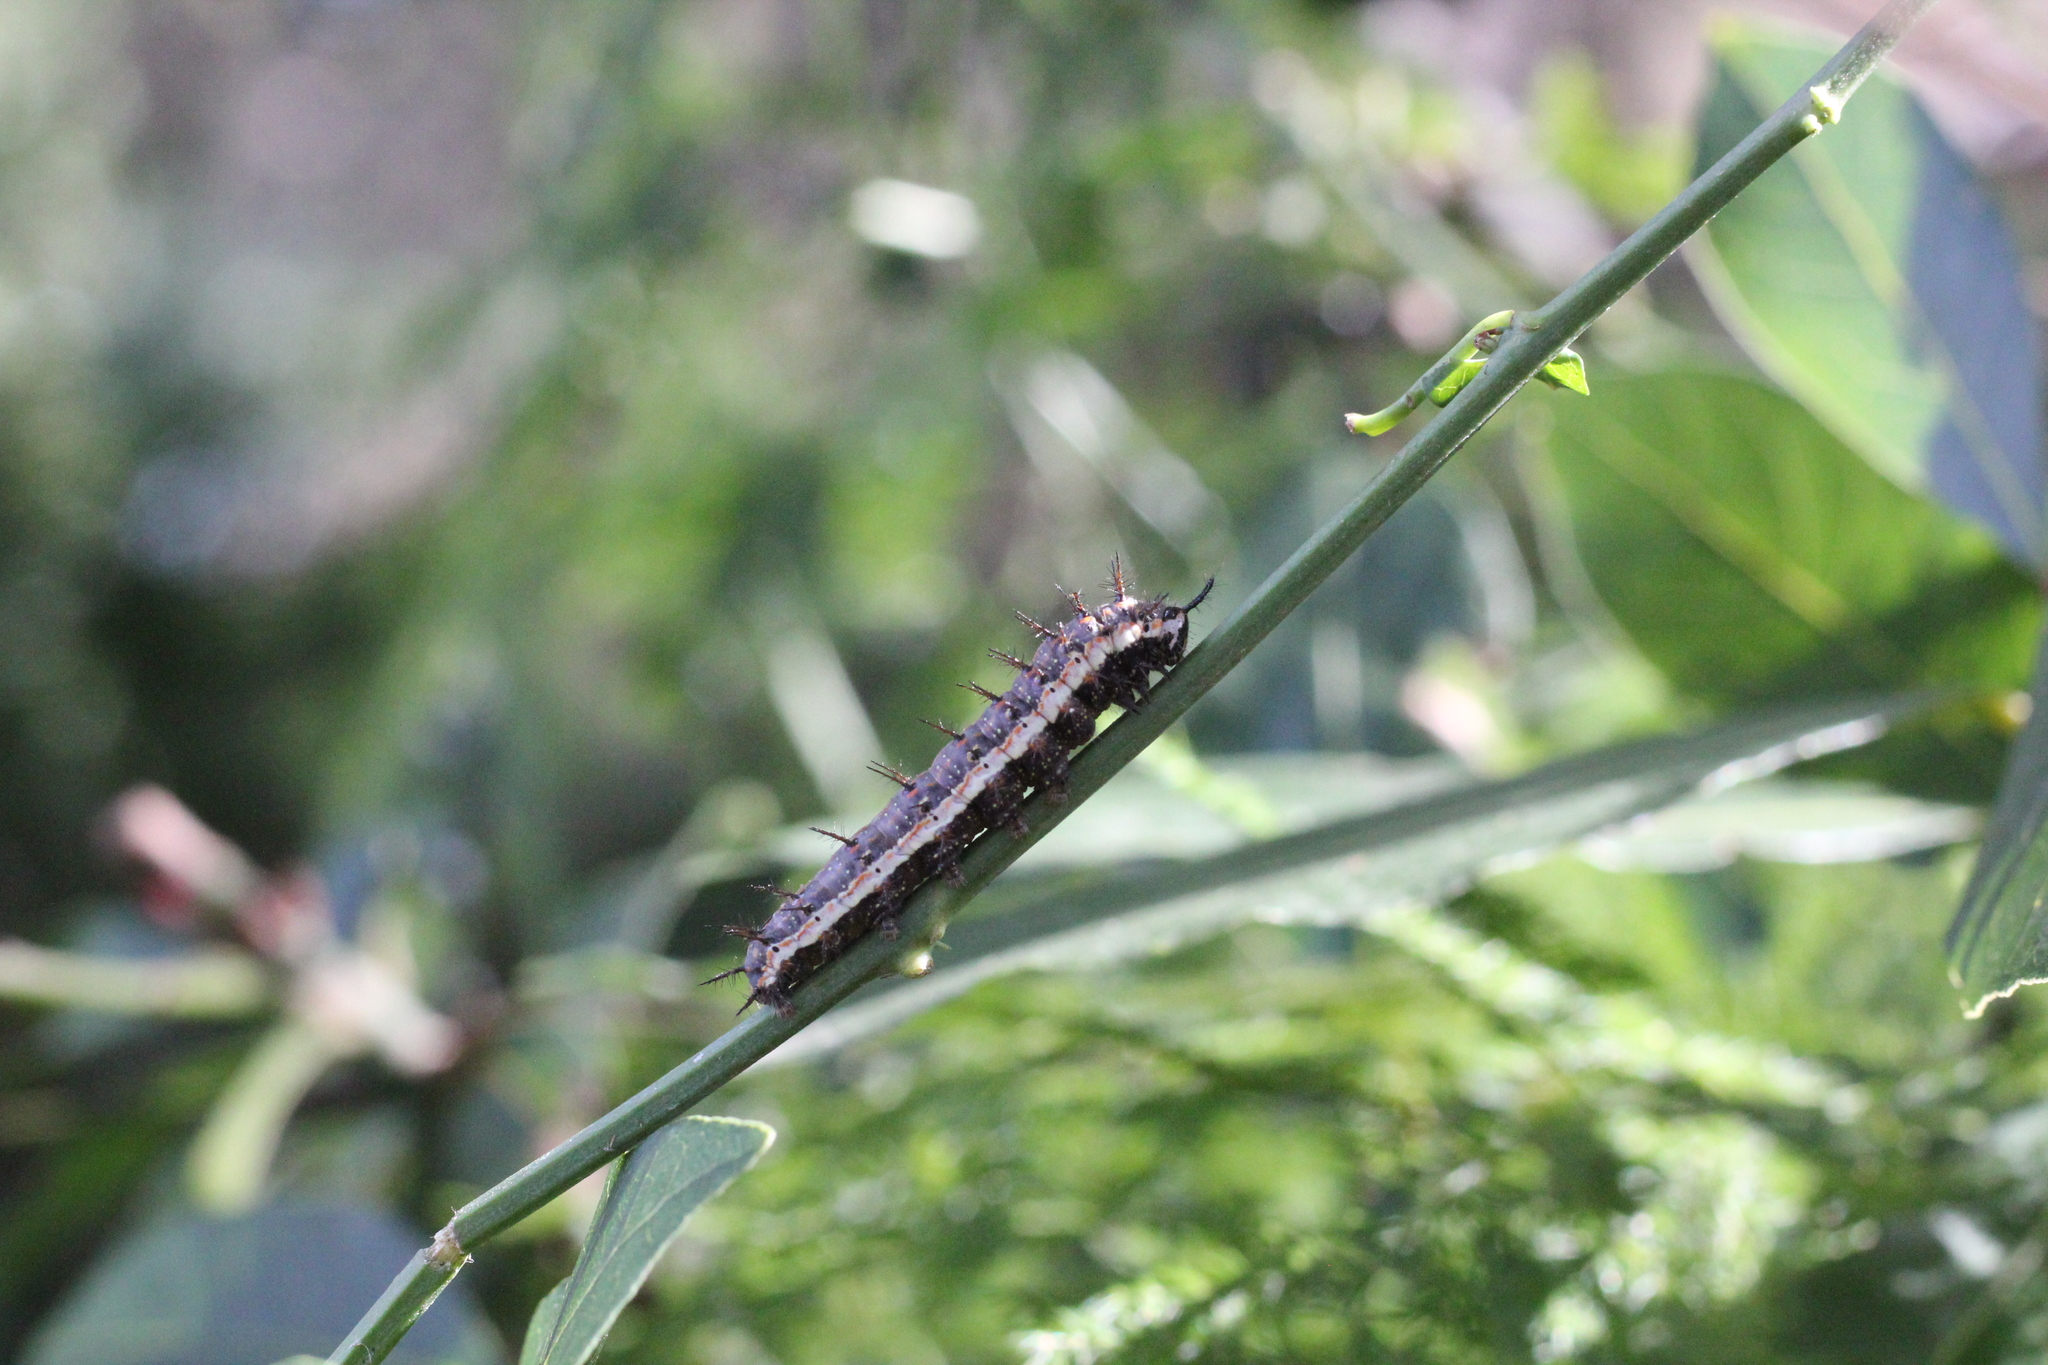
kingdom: Animalia
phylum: Arthropoda
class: Insecta
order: Lepidoptera
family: Nymphalidae
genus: Dione
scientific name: Dione vanillae
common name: Gulf fritillary
